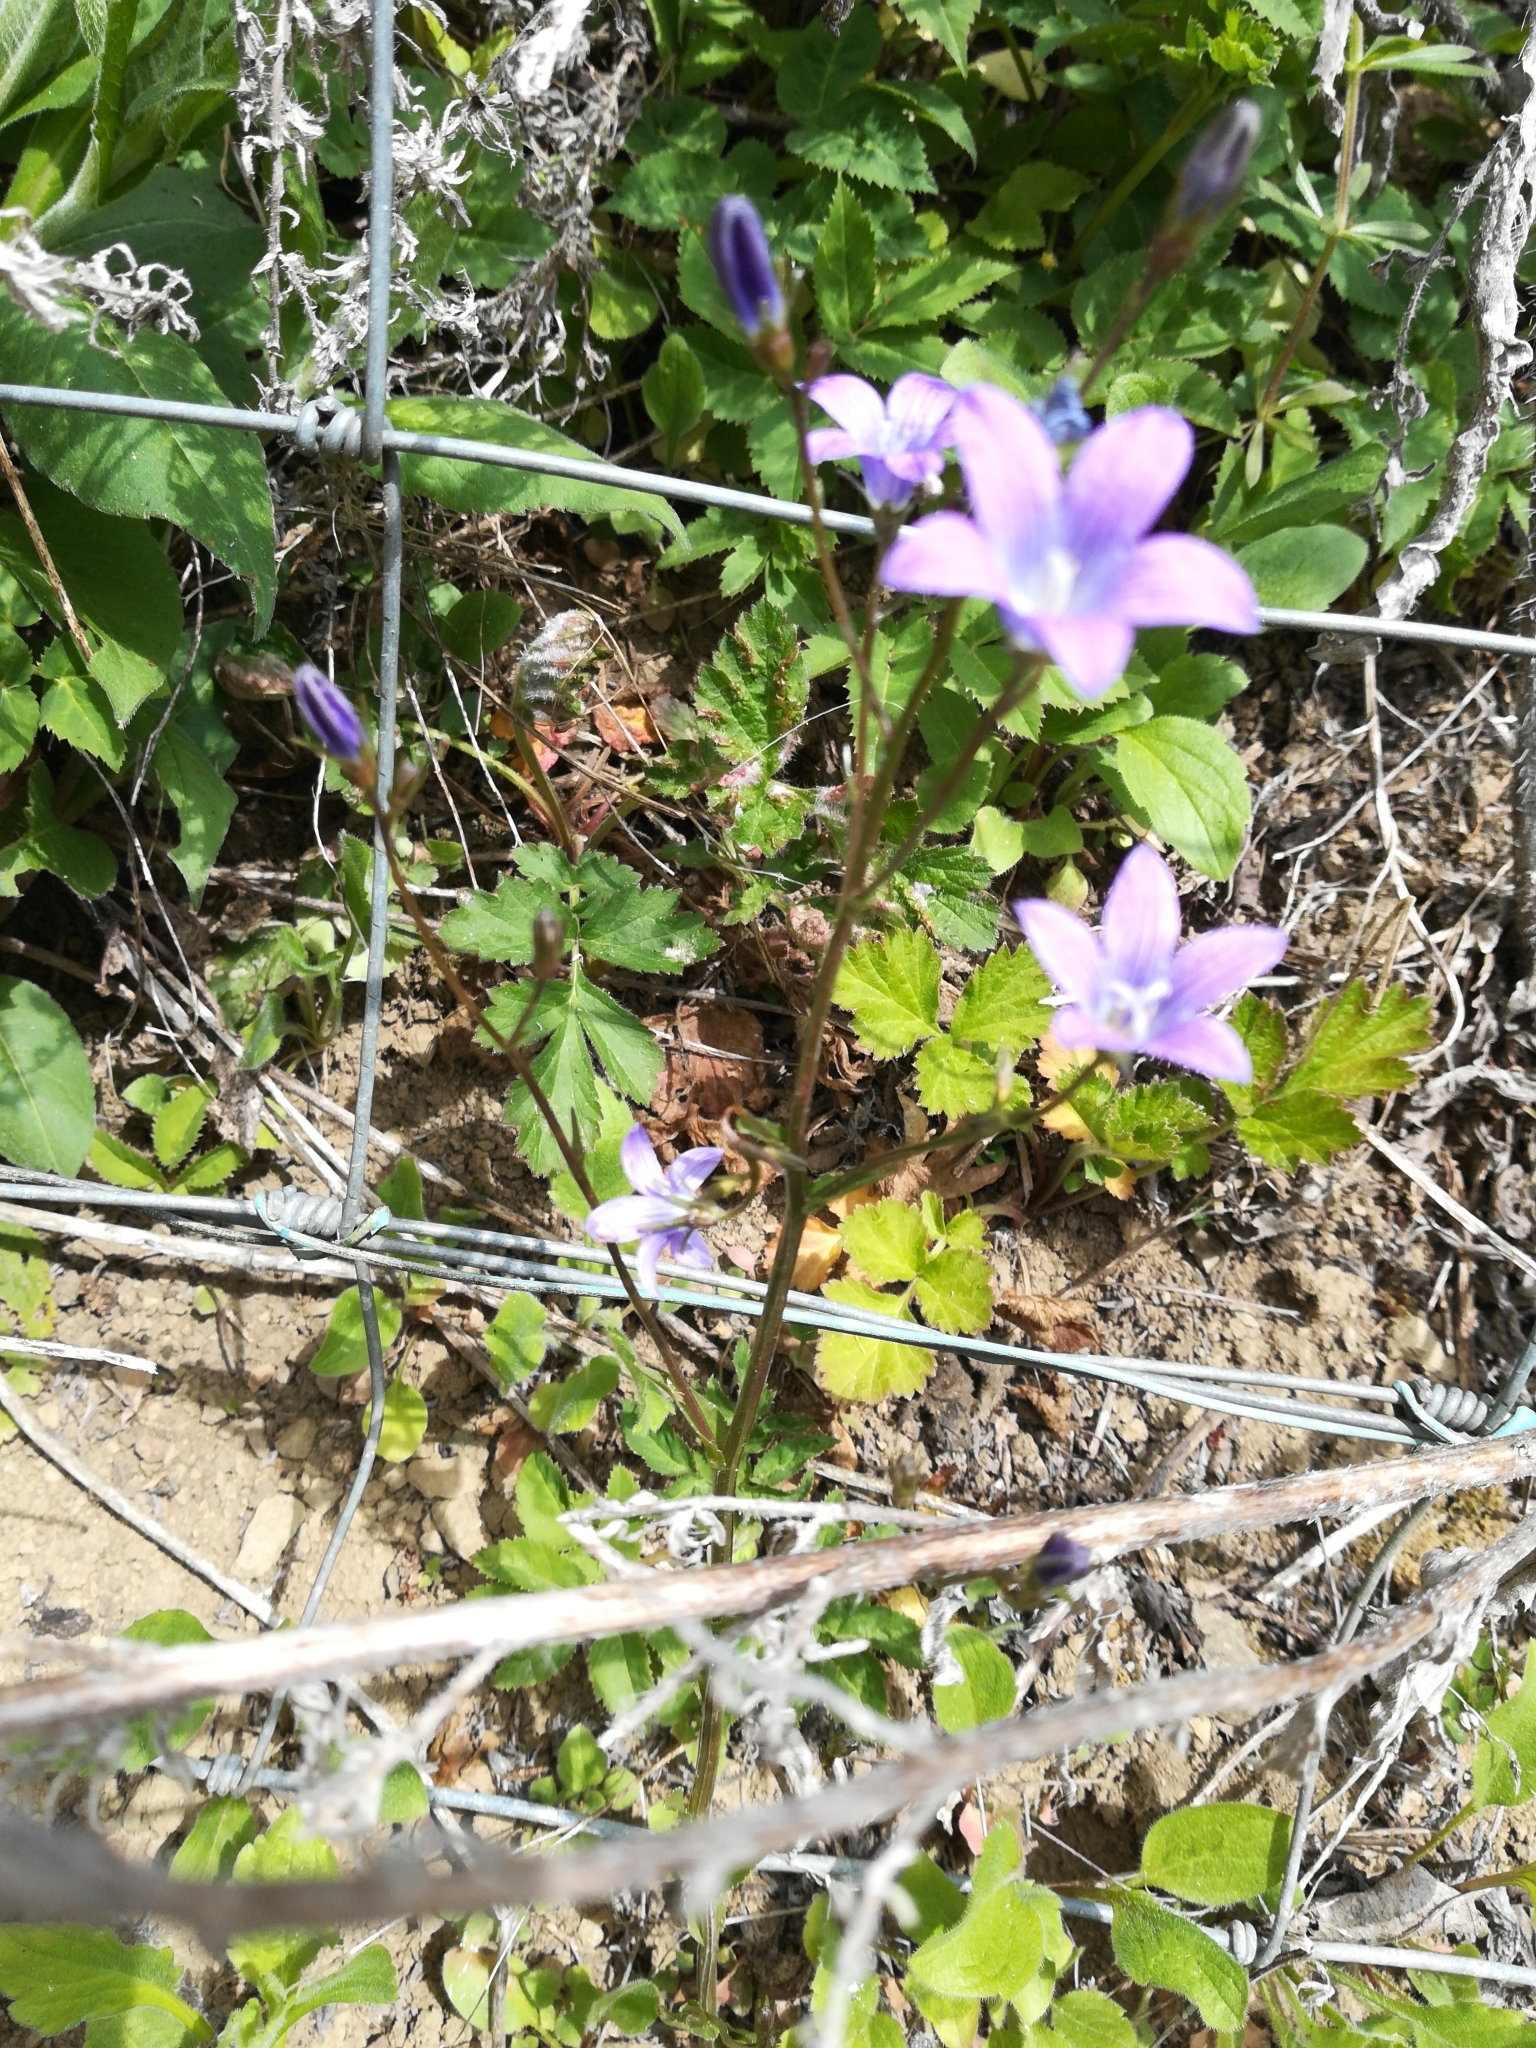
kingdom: Plantae
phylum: Tracheophyta
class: Magnoliopsida
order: Asterales
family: Campanulaceae
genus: Campanula
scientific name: Campanula patula
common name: Spreading bellflower
